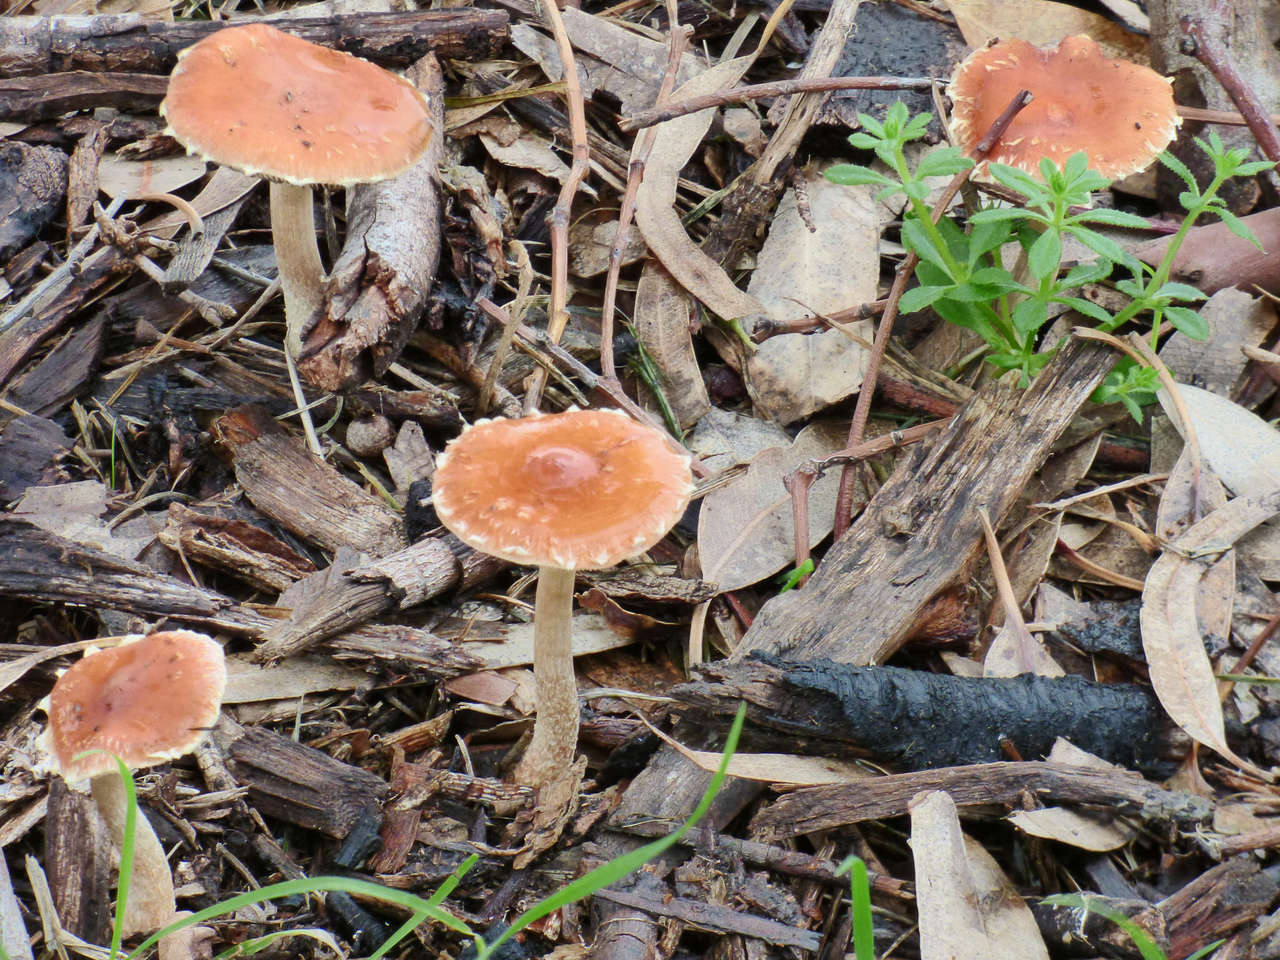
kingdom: Fungi
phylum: Basidiomycota
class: Agaricomycetes
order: Agaricales
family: Strophariaceae
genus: Leratiomyces
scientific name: Leratiomyces ceres
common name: Redlead roundhead
